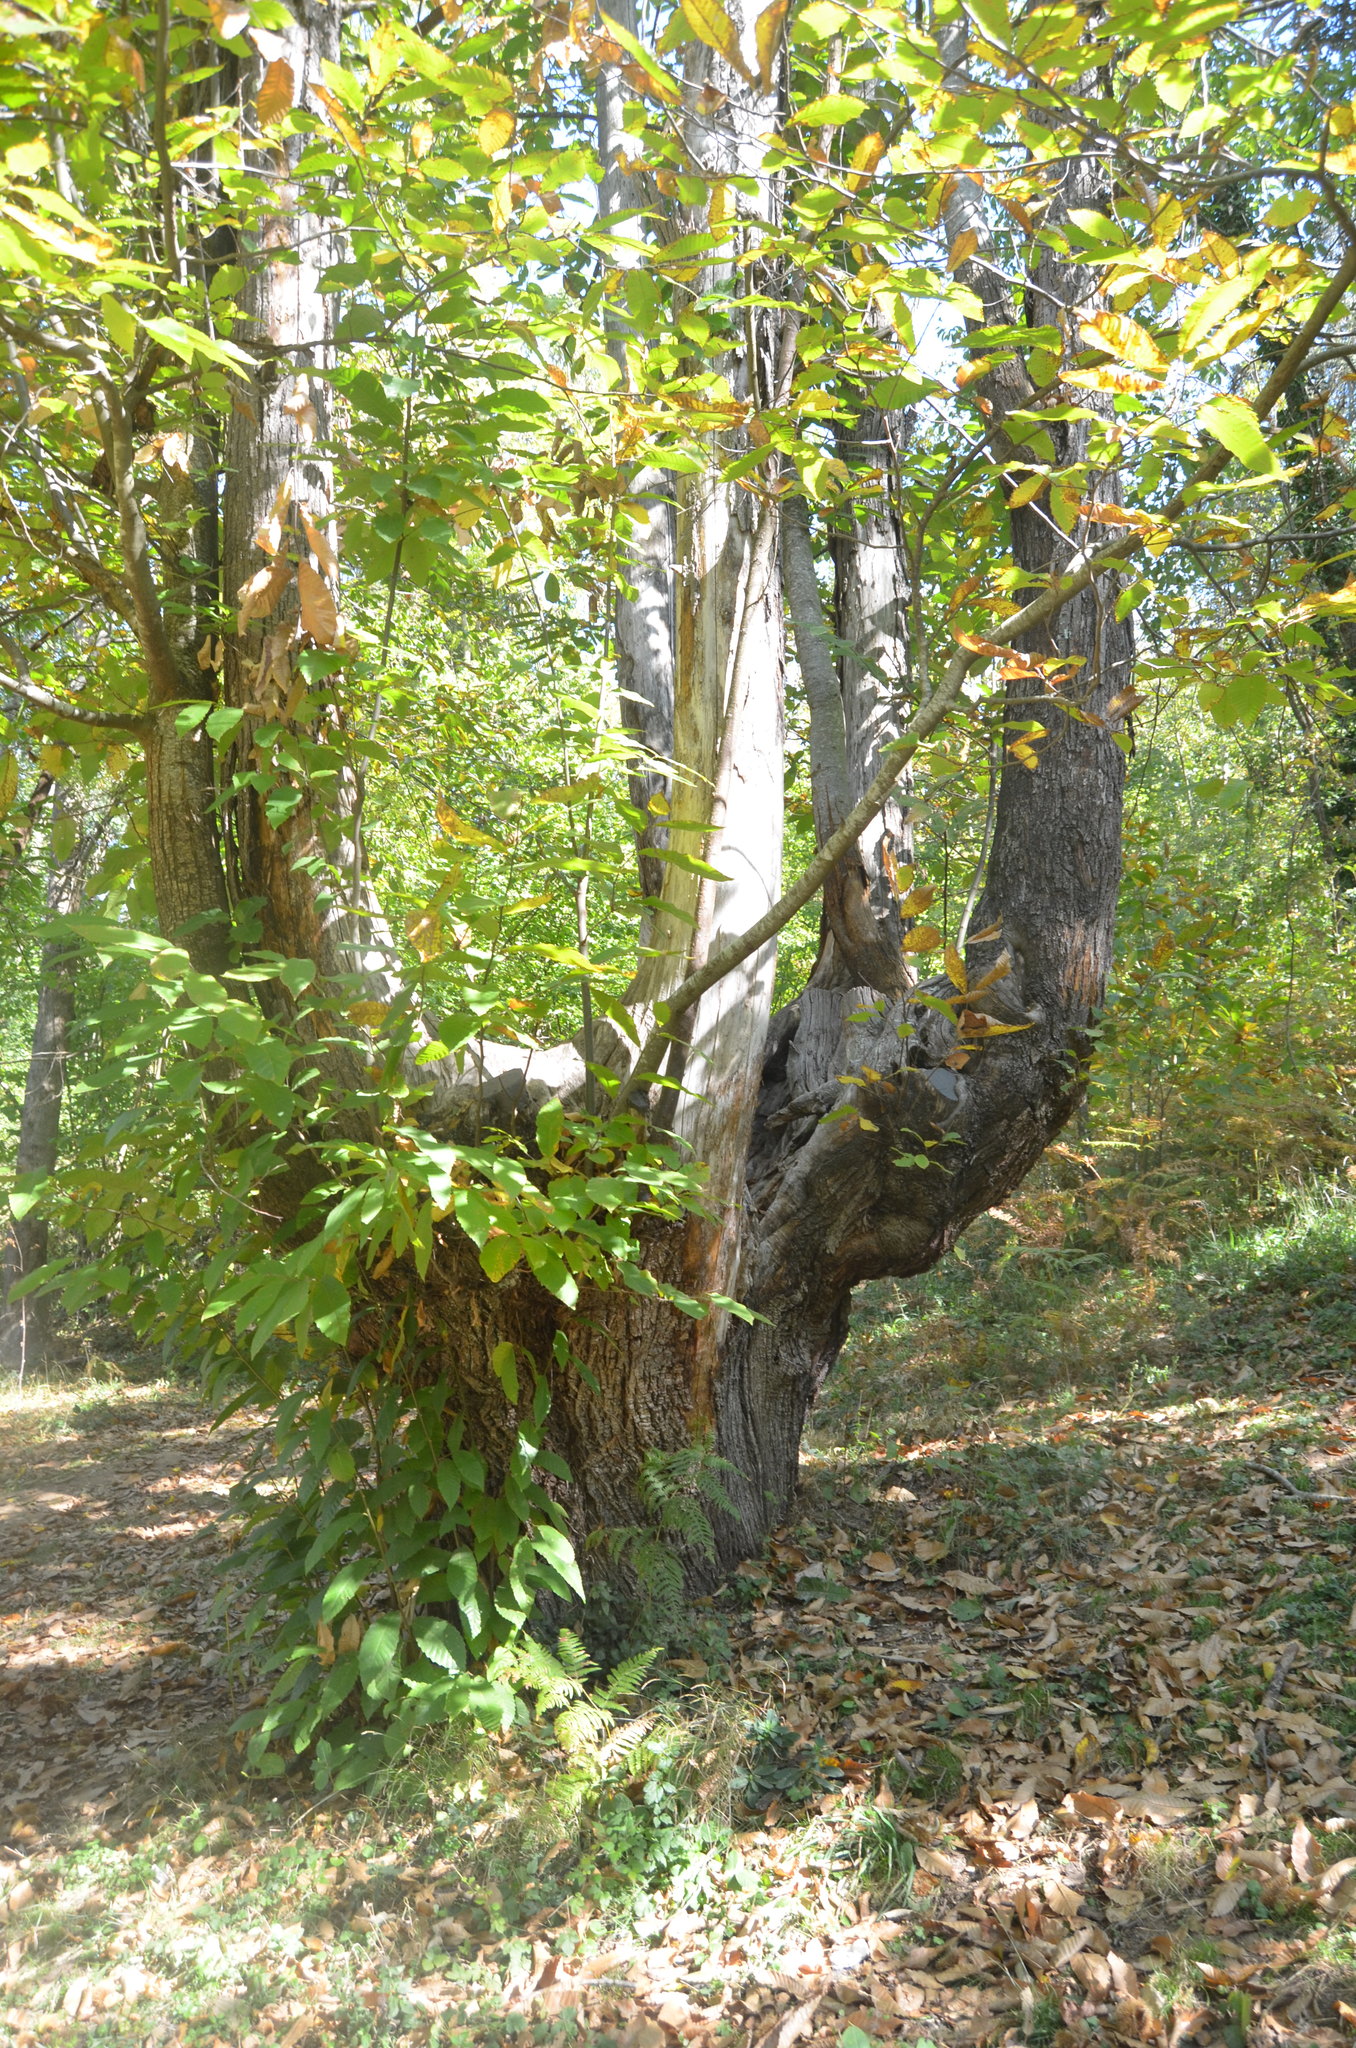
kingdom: Plantae
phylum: Tracheophyta
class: Magnoliopsida
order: Fagales
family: Fagaceae
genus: Castanea
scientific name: Castanea sativa
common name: Sweet chestnut
